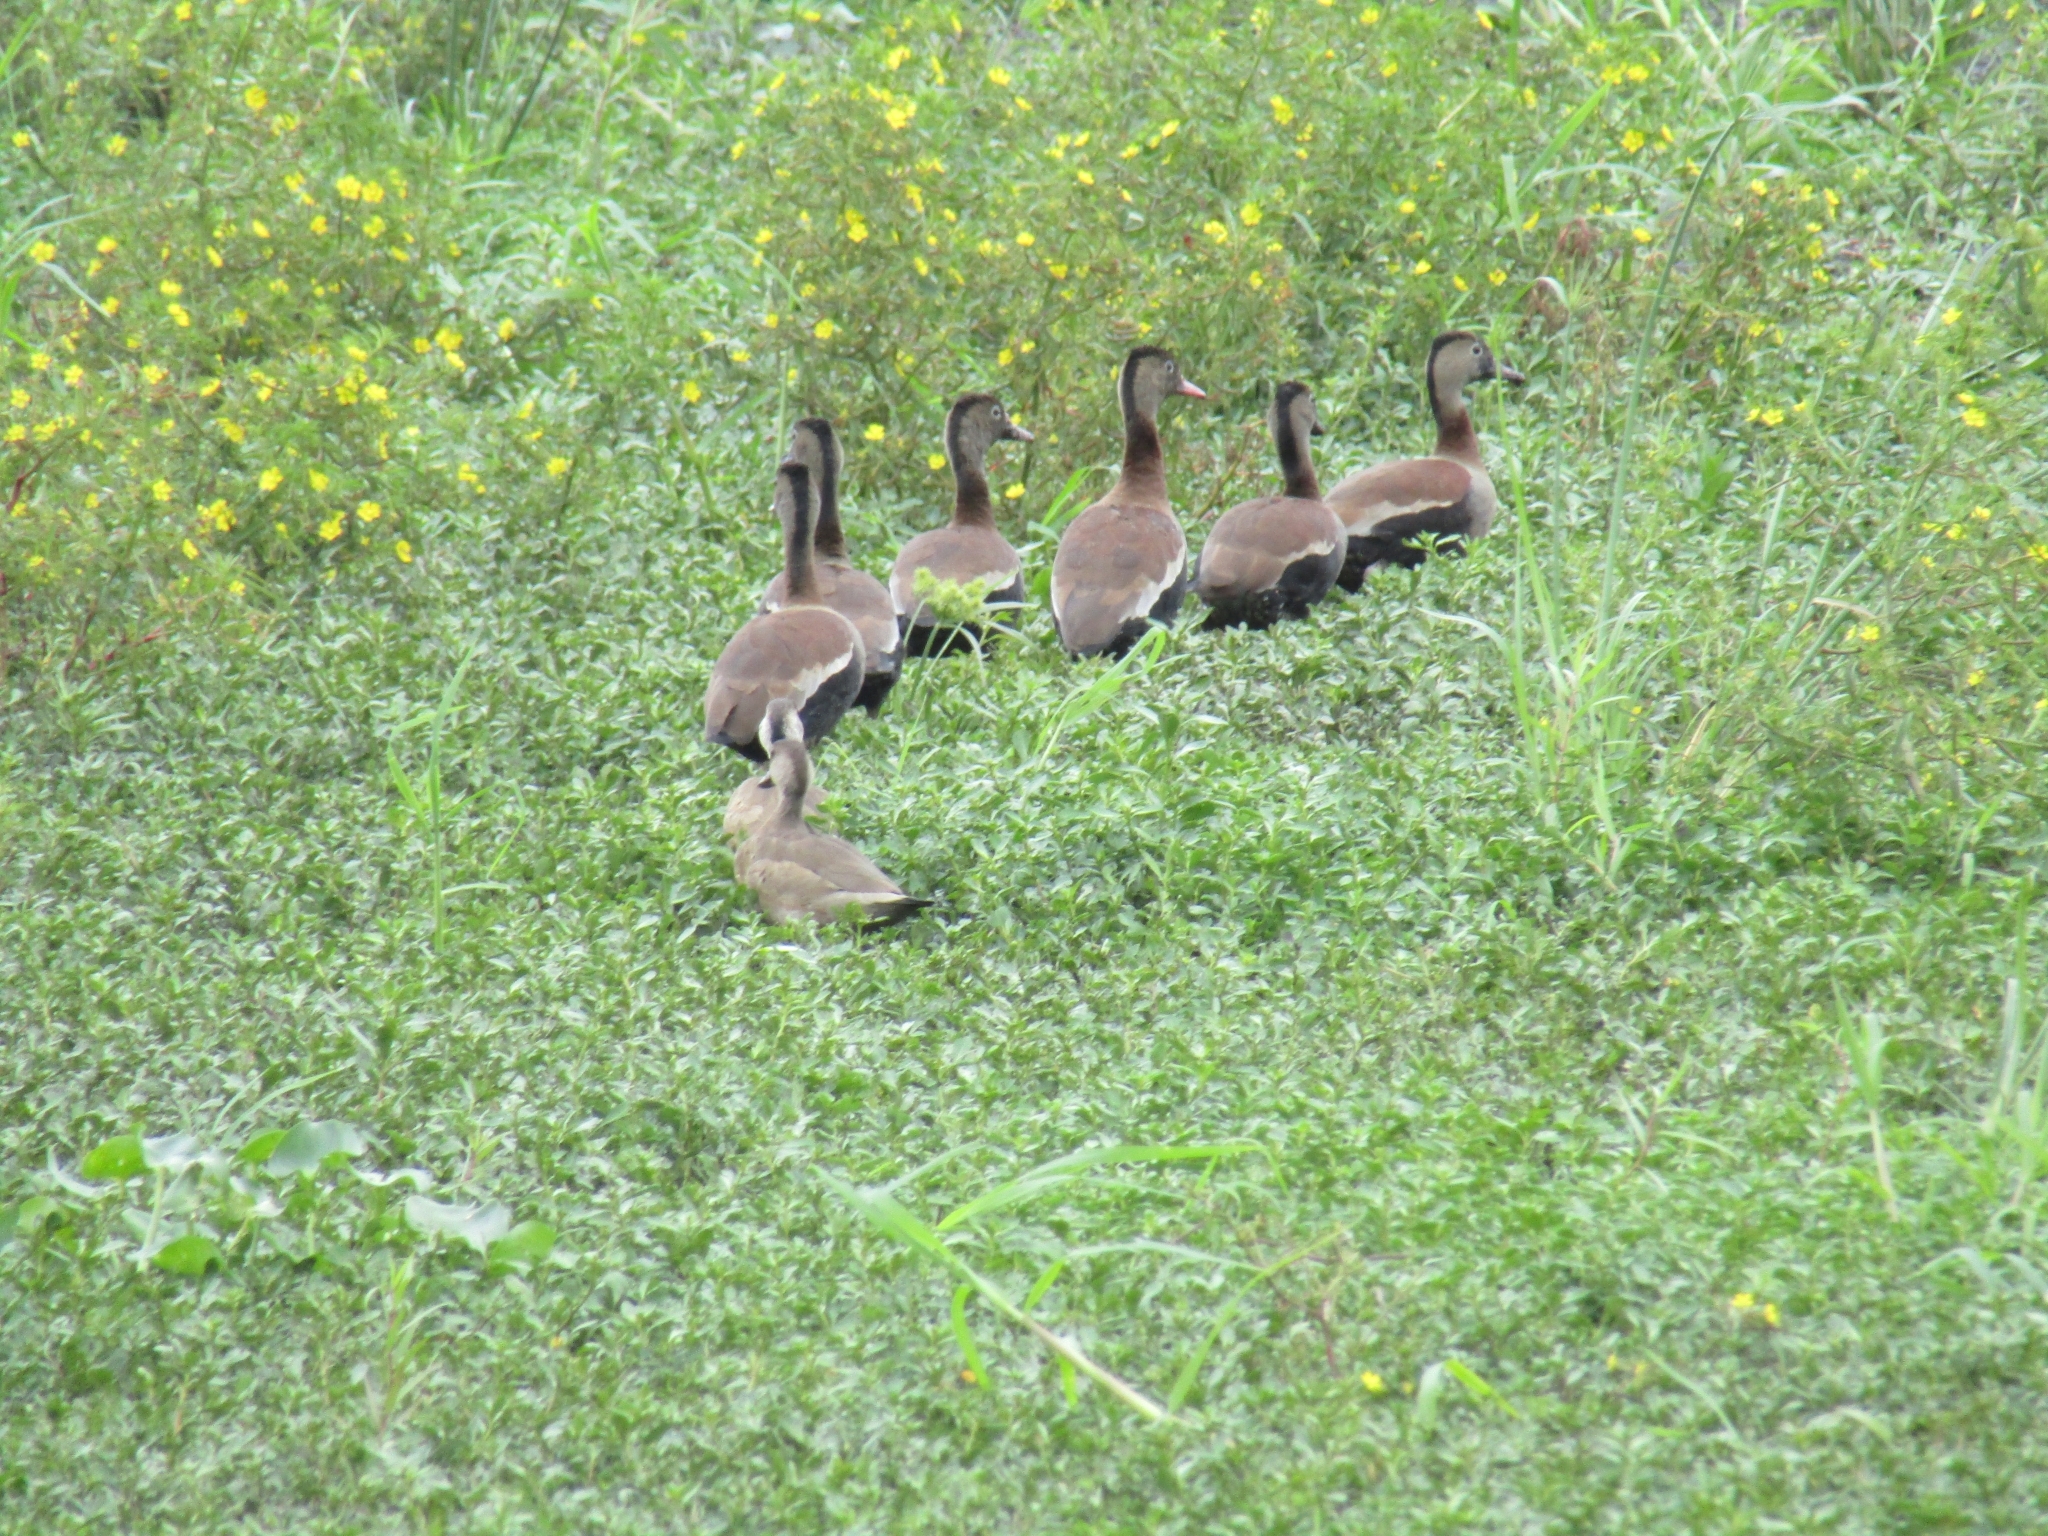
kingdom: Animalia
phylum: Chordata
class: Aves
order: Anseriformes
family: Anatidae
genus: Dendrocygna
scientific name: Dendrocygna autumnalis
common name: Black-bellied whistling duck
